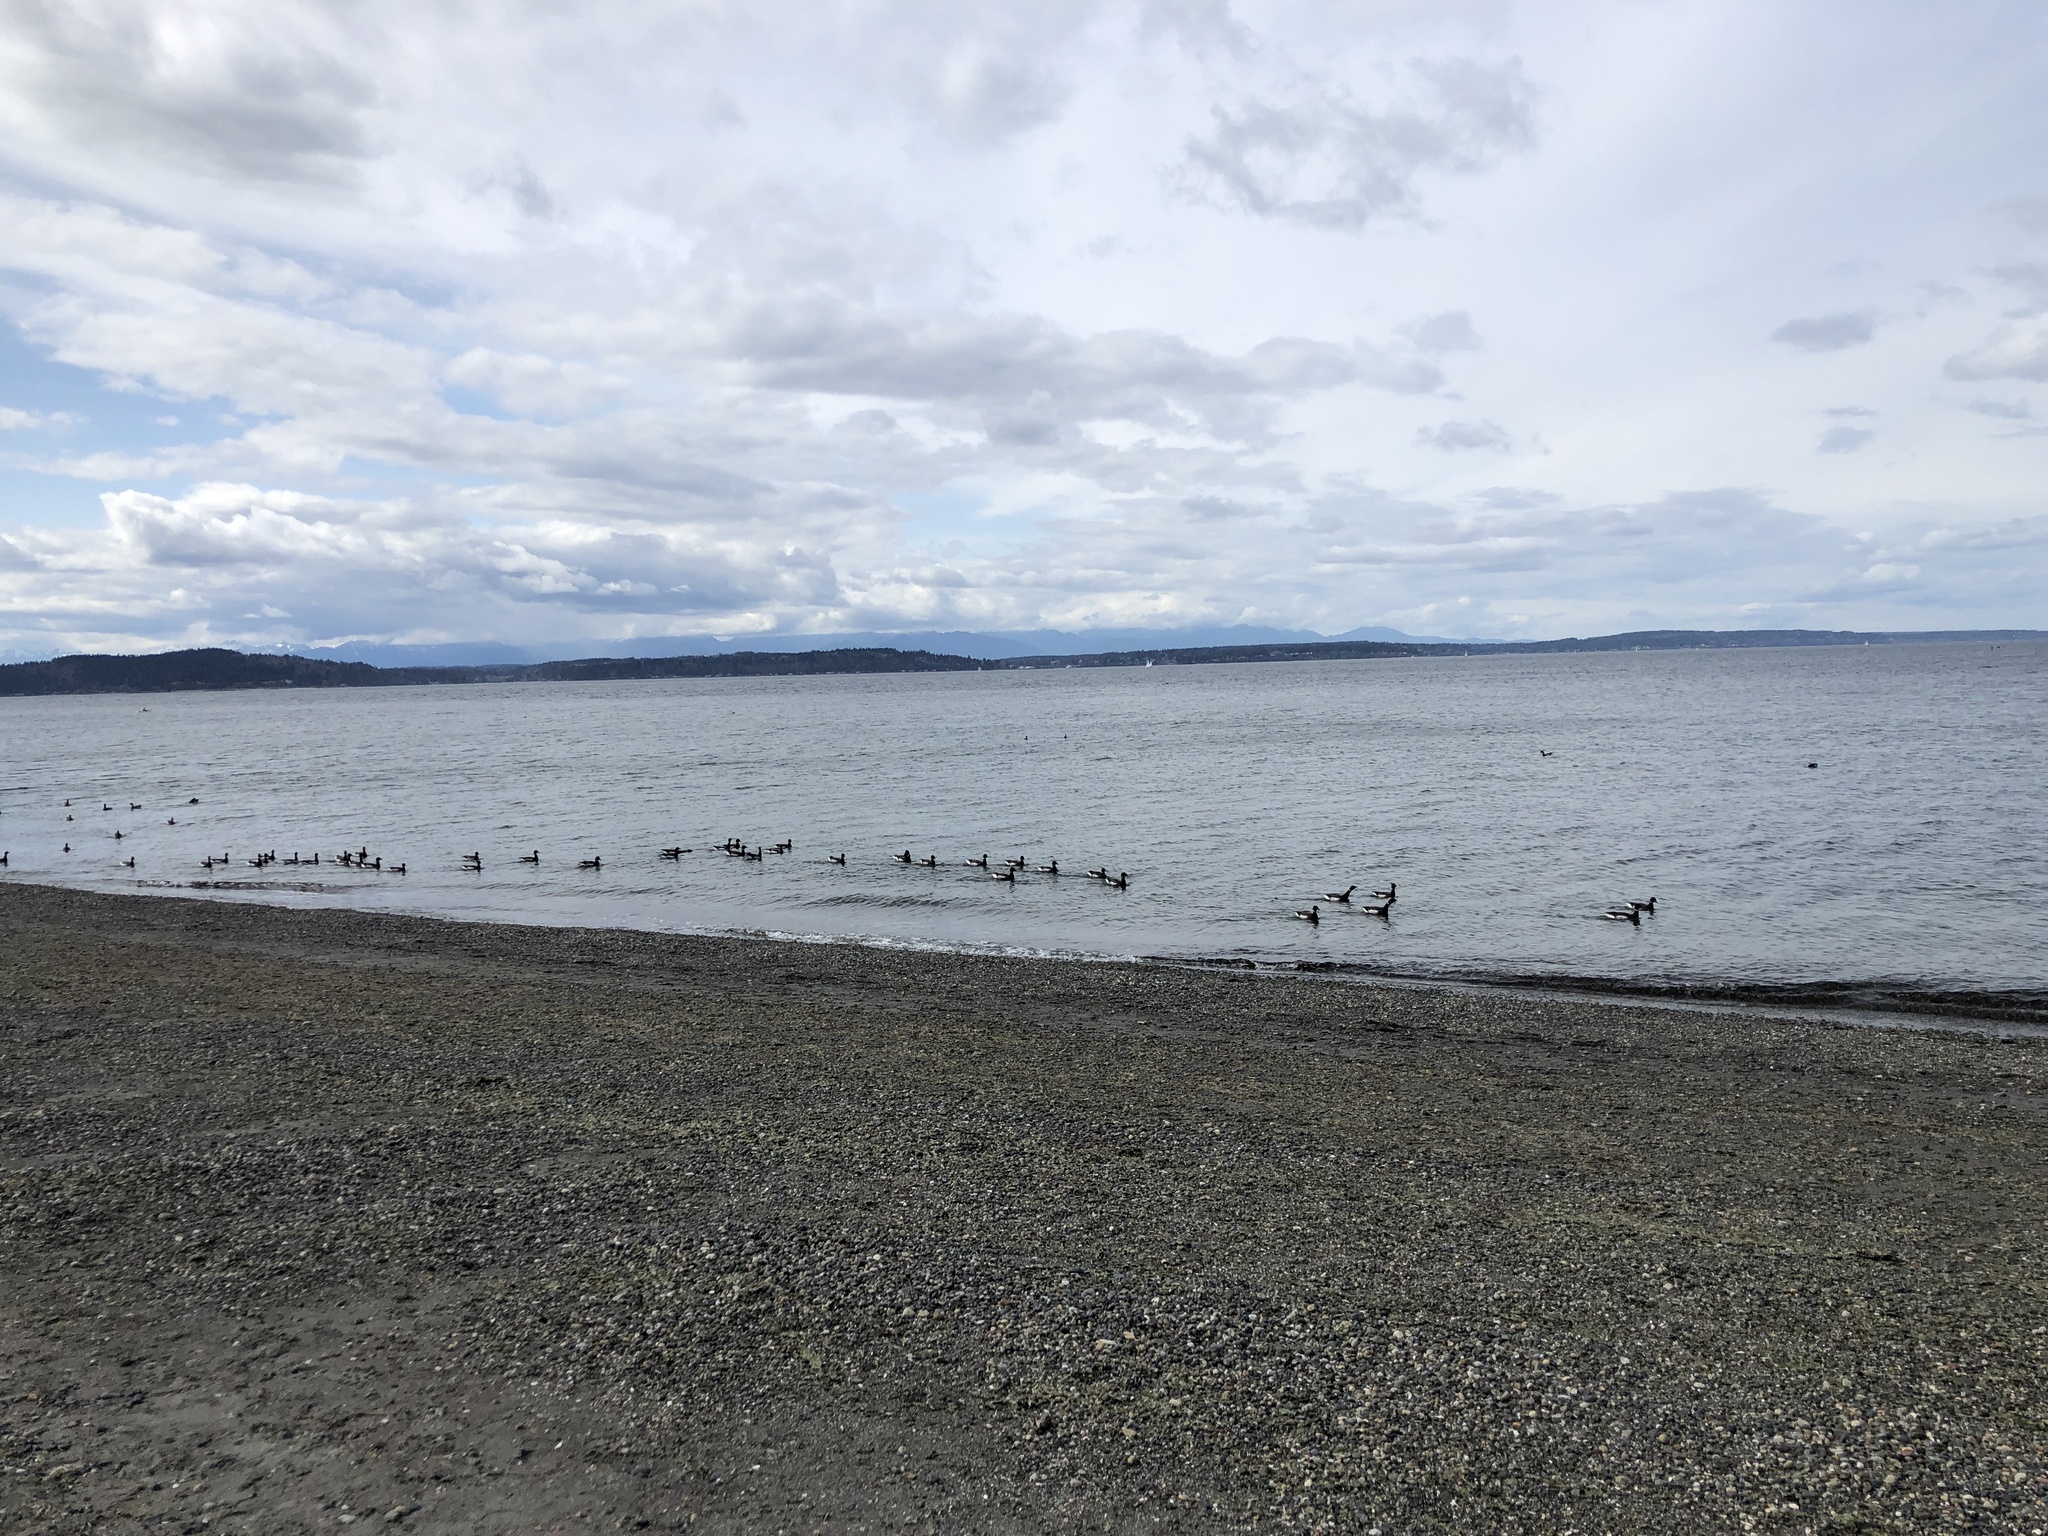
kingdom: Animalia
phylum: Chordata
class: Aves
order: Anseriformes
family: Anatidae
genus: Branta
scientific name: Branta bernicla
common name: Brant goose
